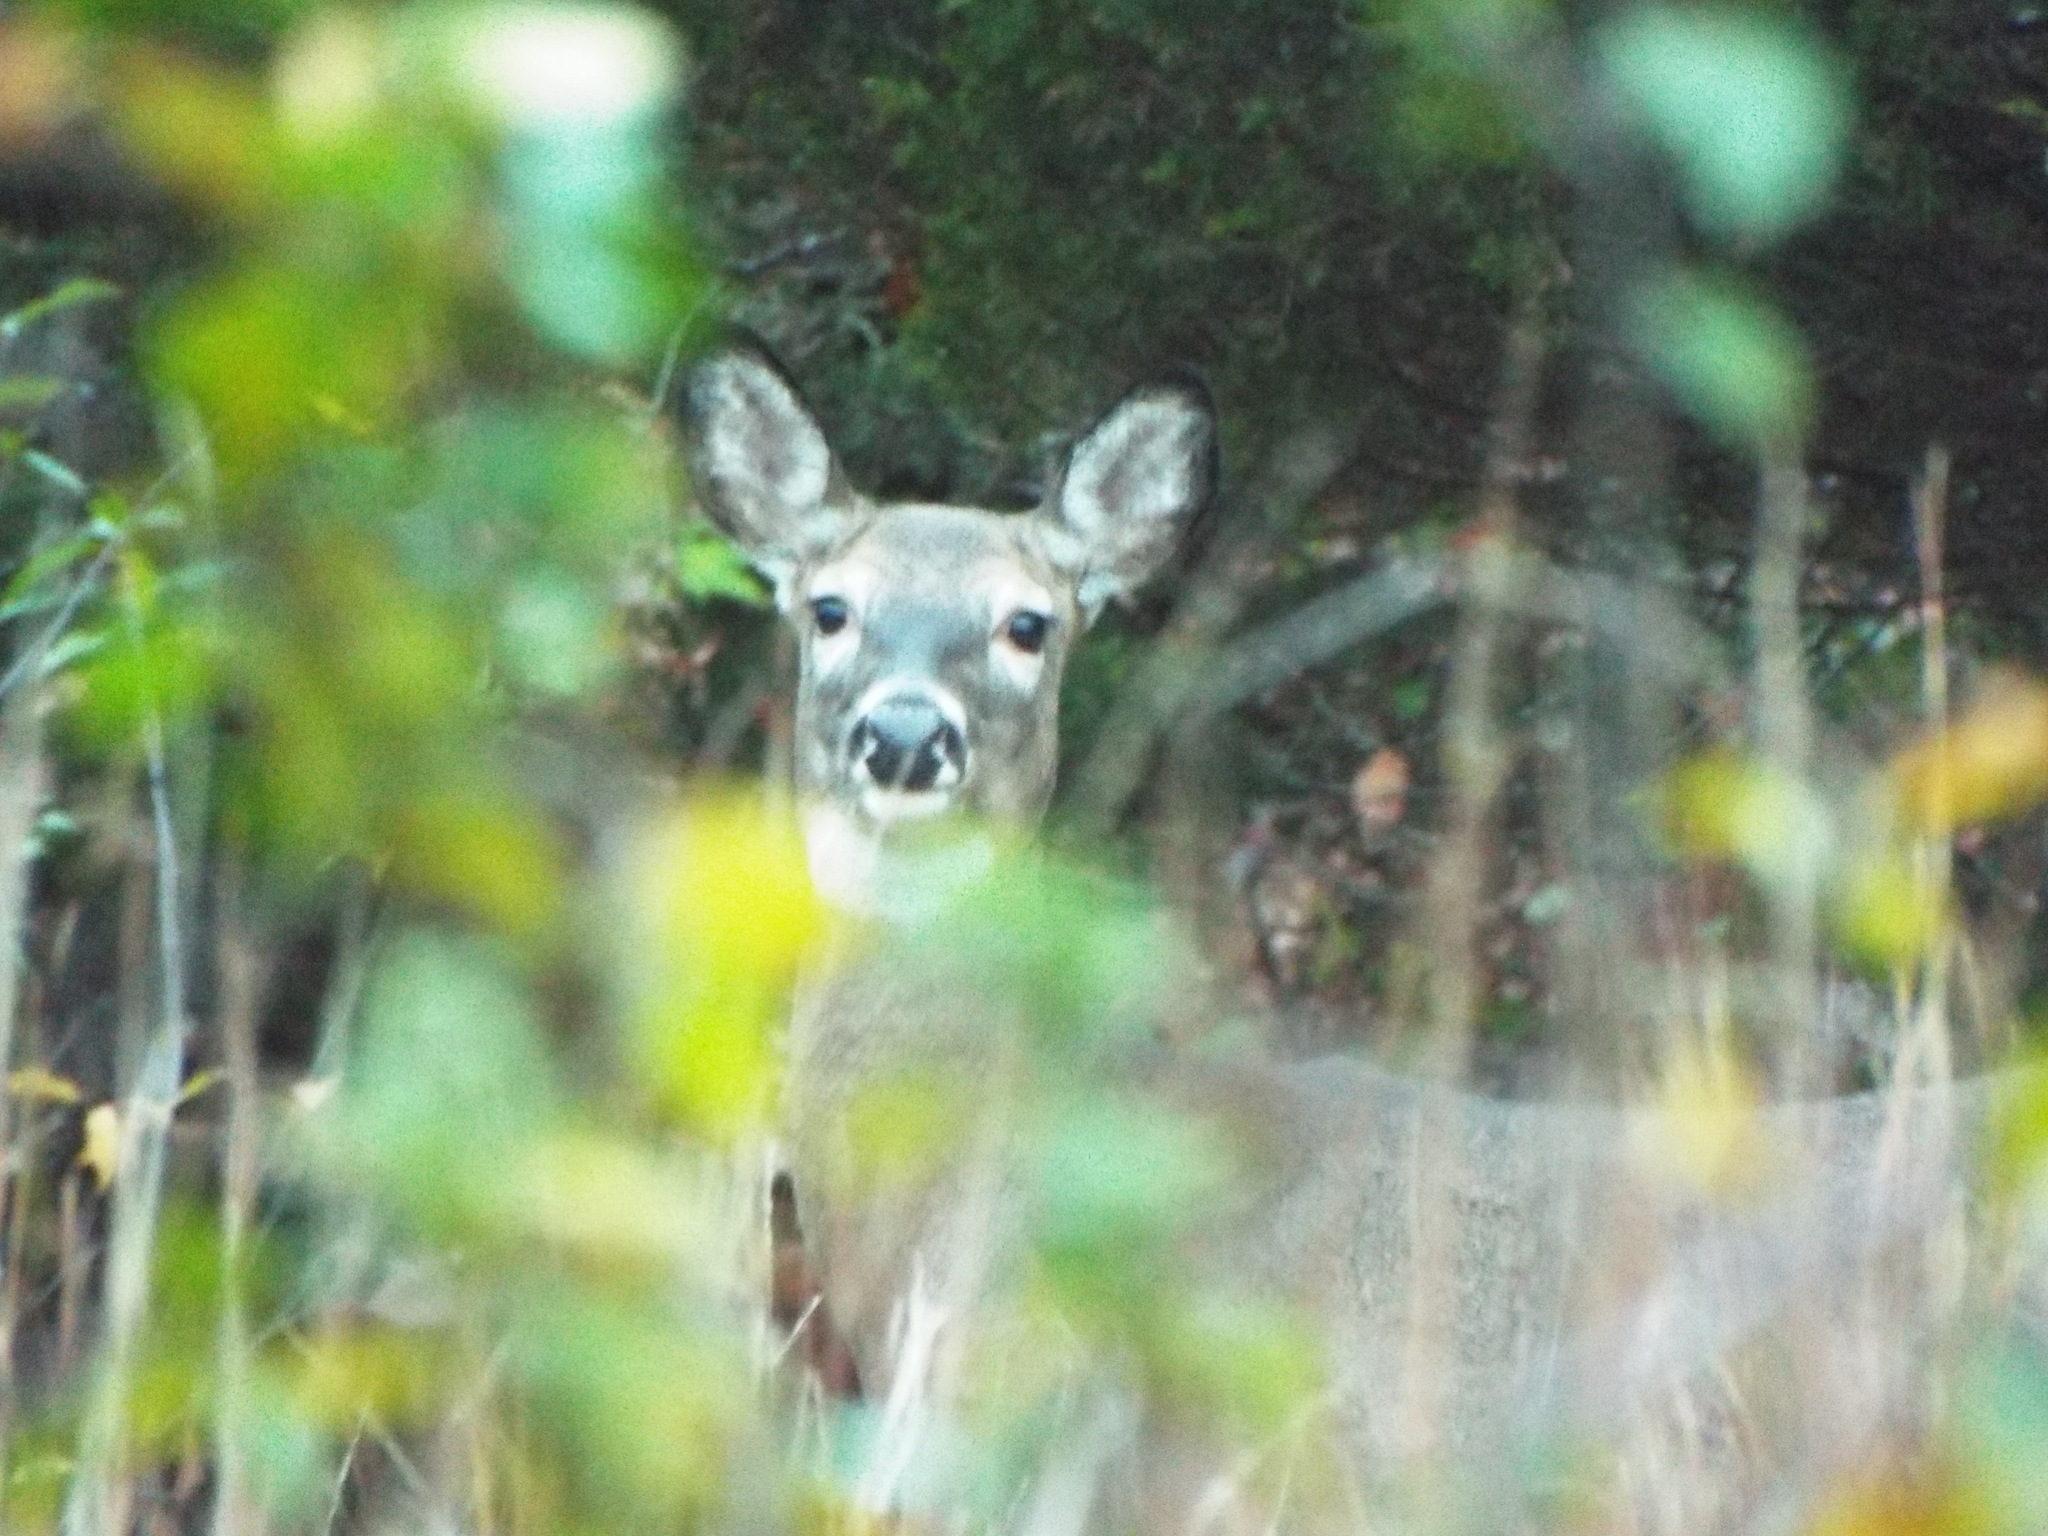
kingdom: Animalia
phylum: Chordata
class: Mammalia
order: Artiodactyla
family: Cervidae
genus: Odocoileus
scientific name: Odocoileus virginianus
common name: White-tailed deer
